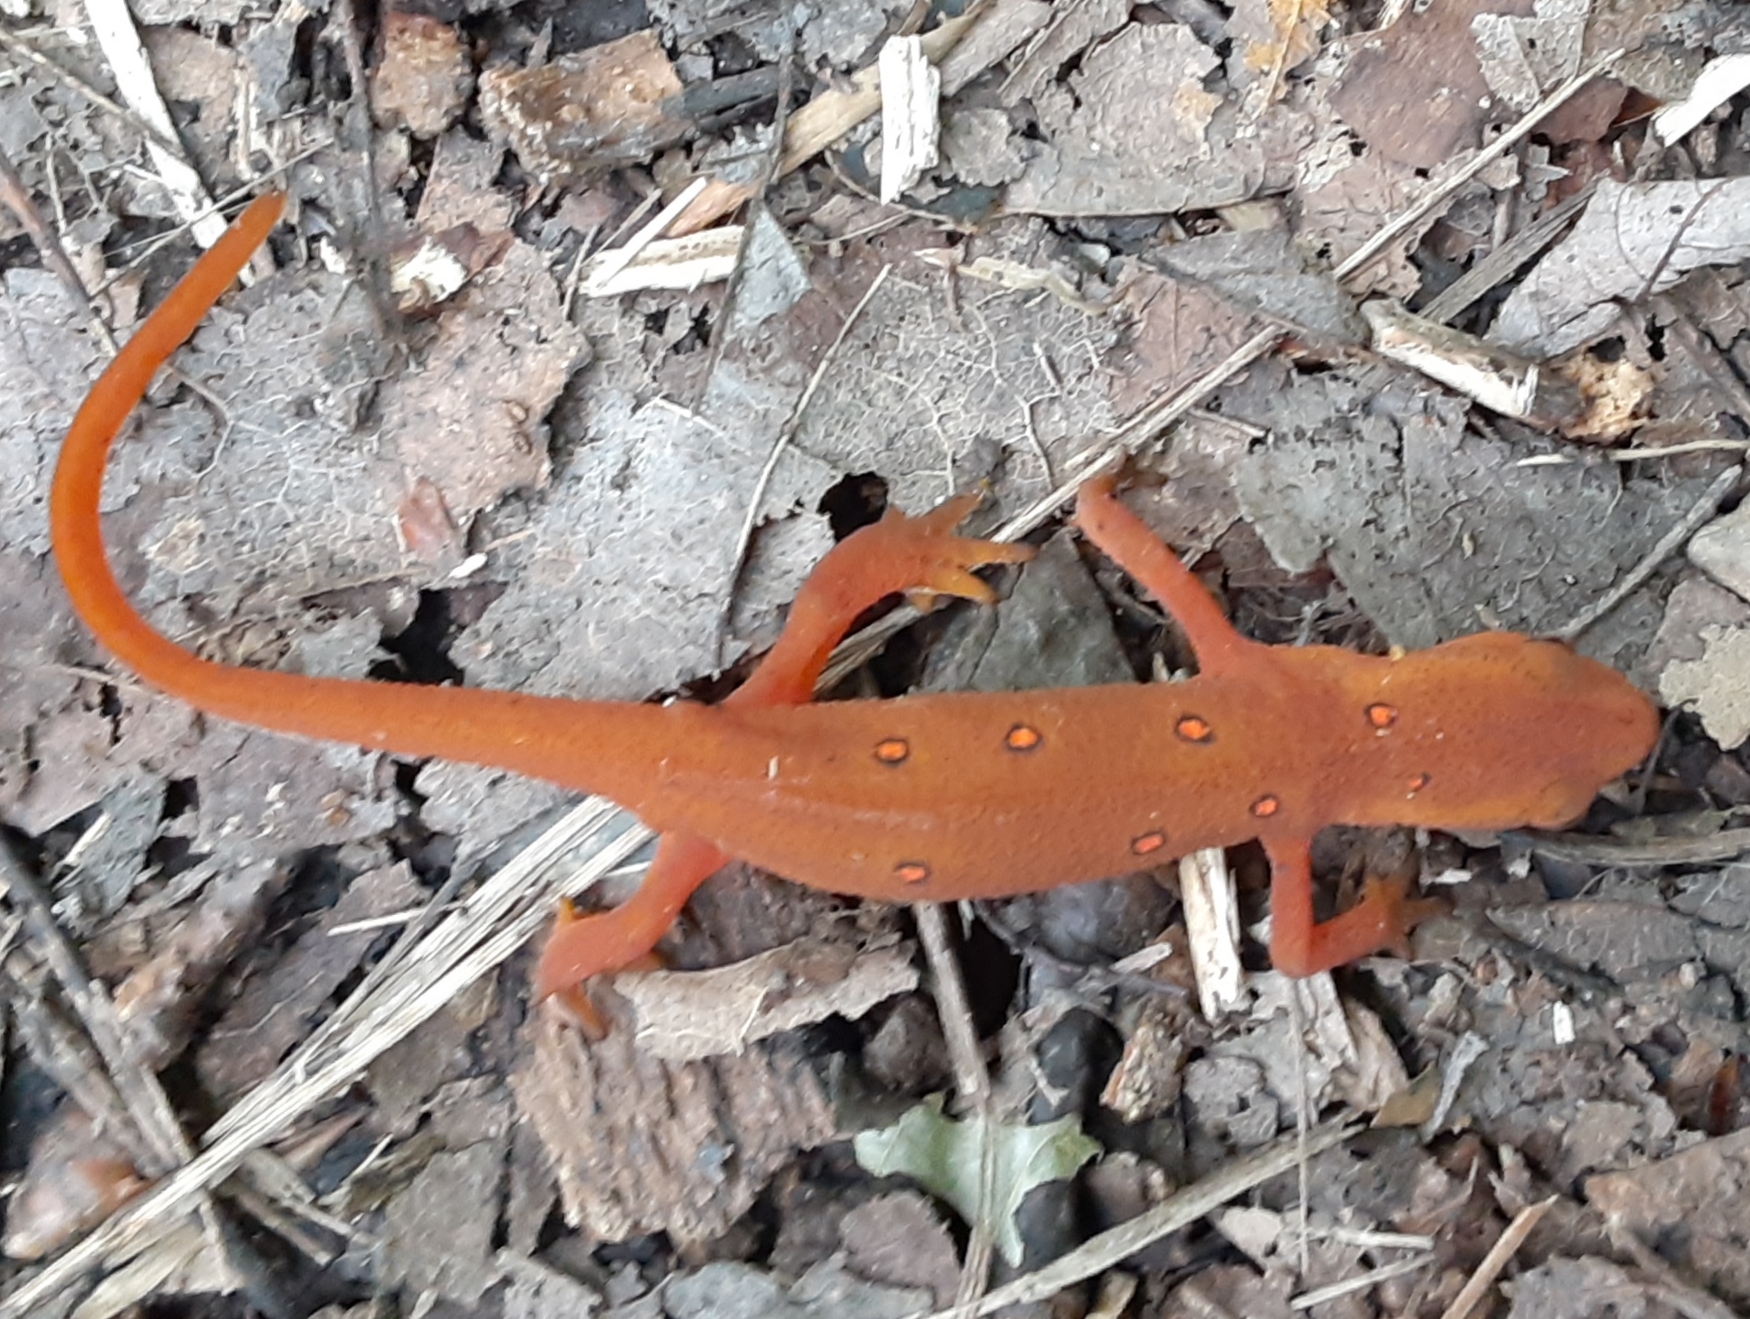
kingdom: Animalia
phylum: Chordata
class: Amphibia
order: Caudata
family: Salamandridae
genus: Notophthalmus
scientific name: Notophthalmus viridescens
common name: Eastern newt
